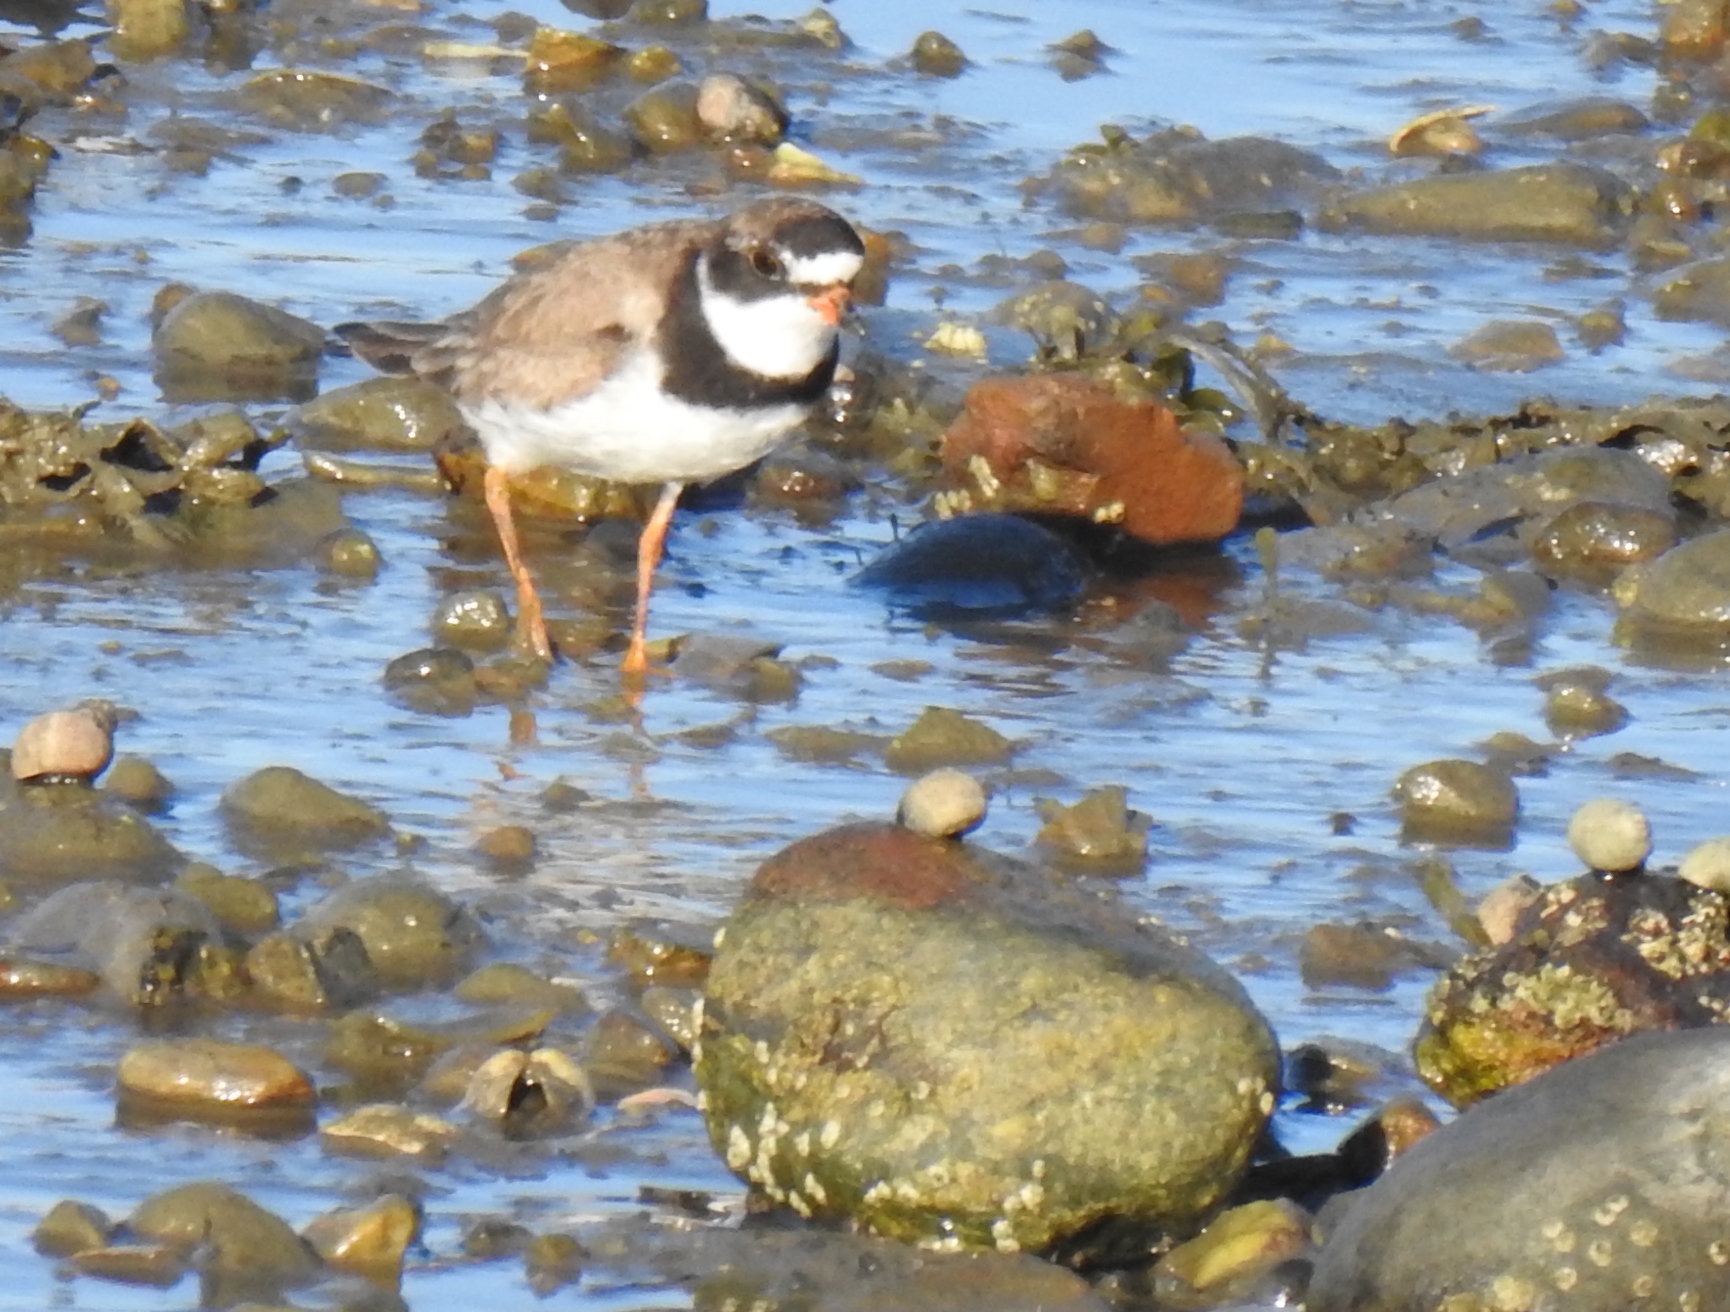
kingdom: Animalia
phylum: Chordata
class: Aves
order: Charadriiformes
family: Charadriidae
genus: Charadrius
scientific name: Charadrius semipalmatus
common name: Semipalmated plover
